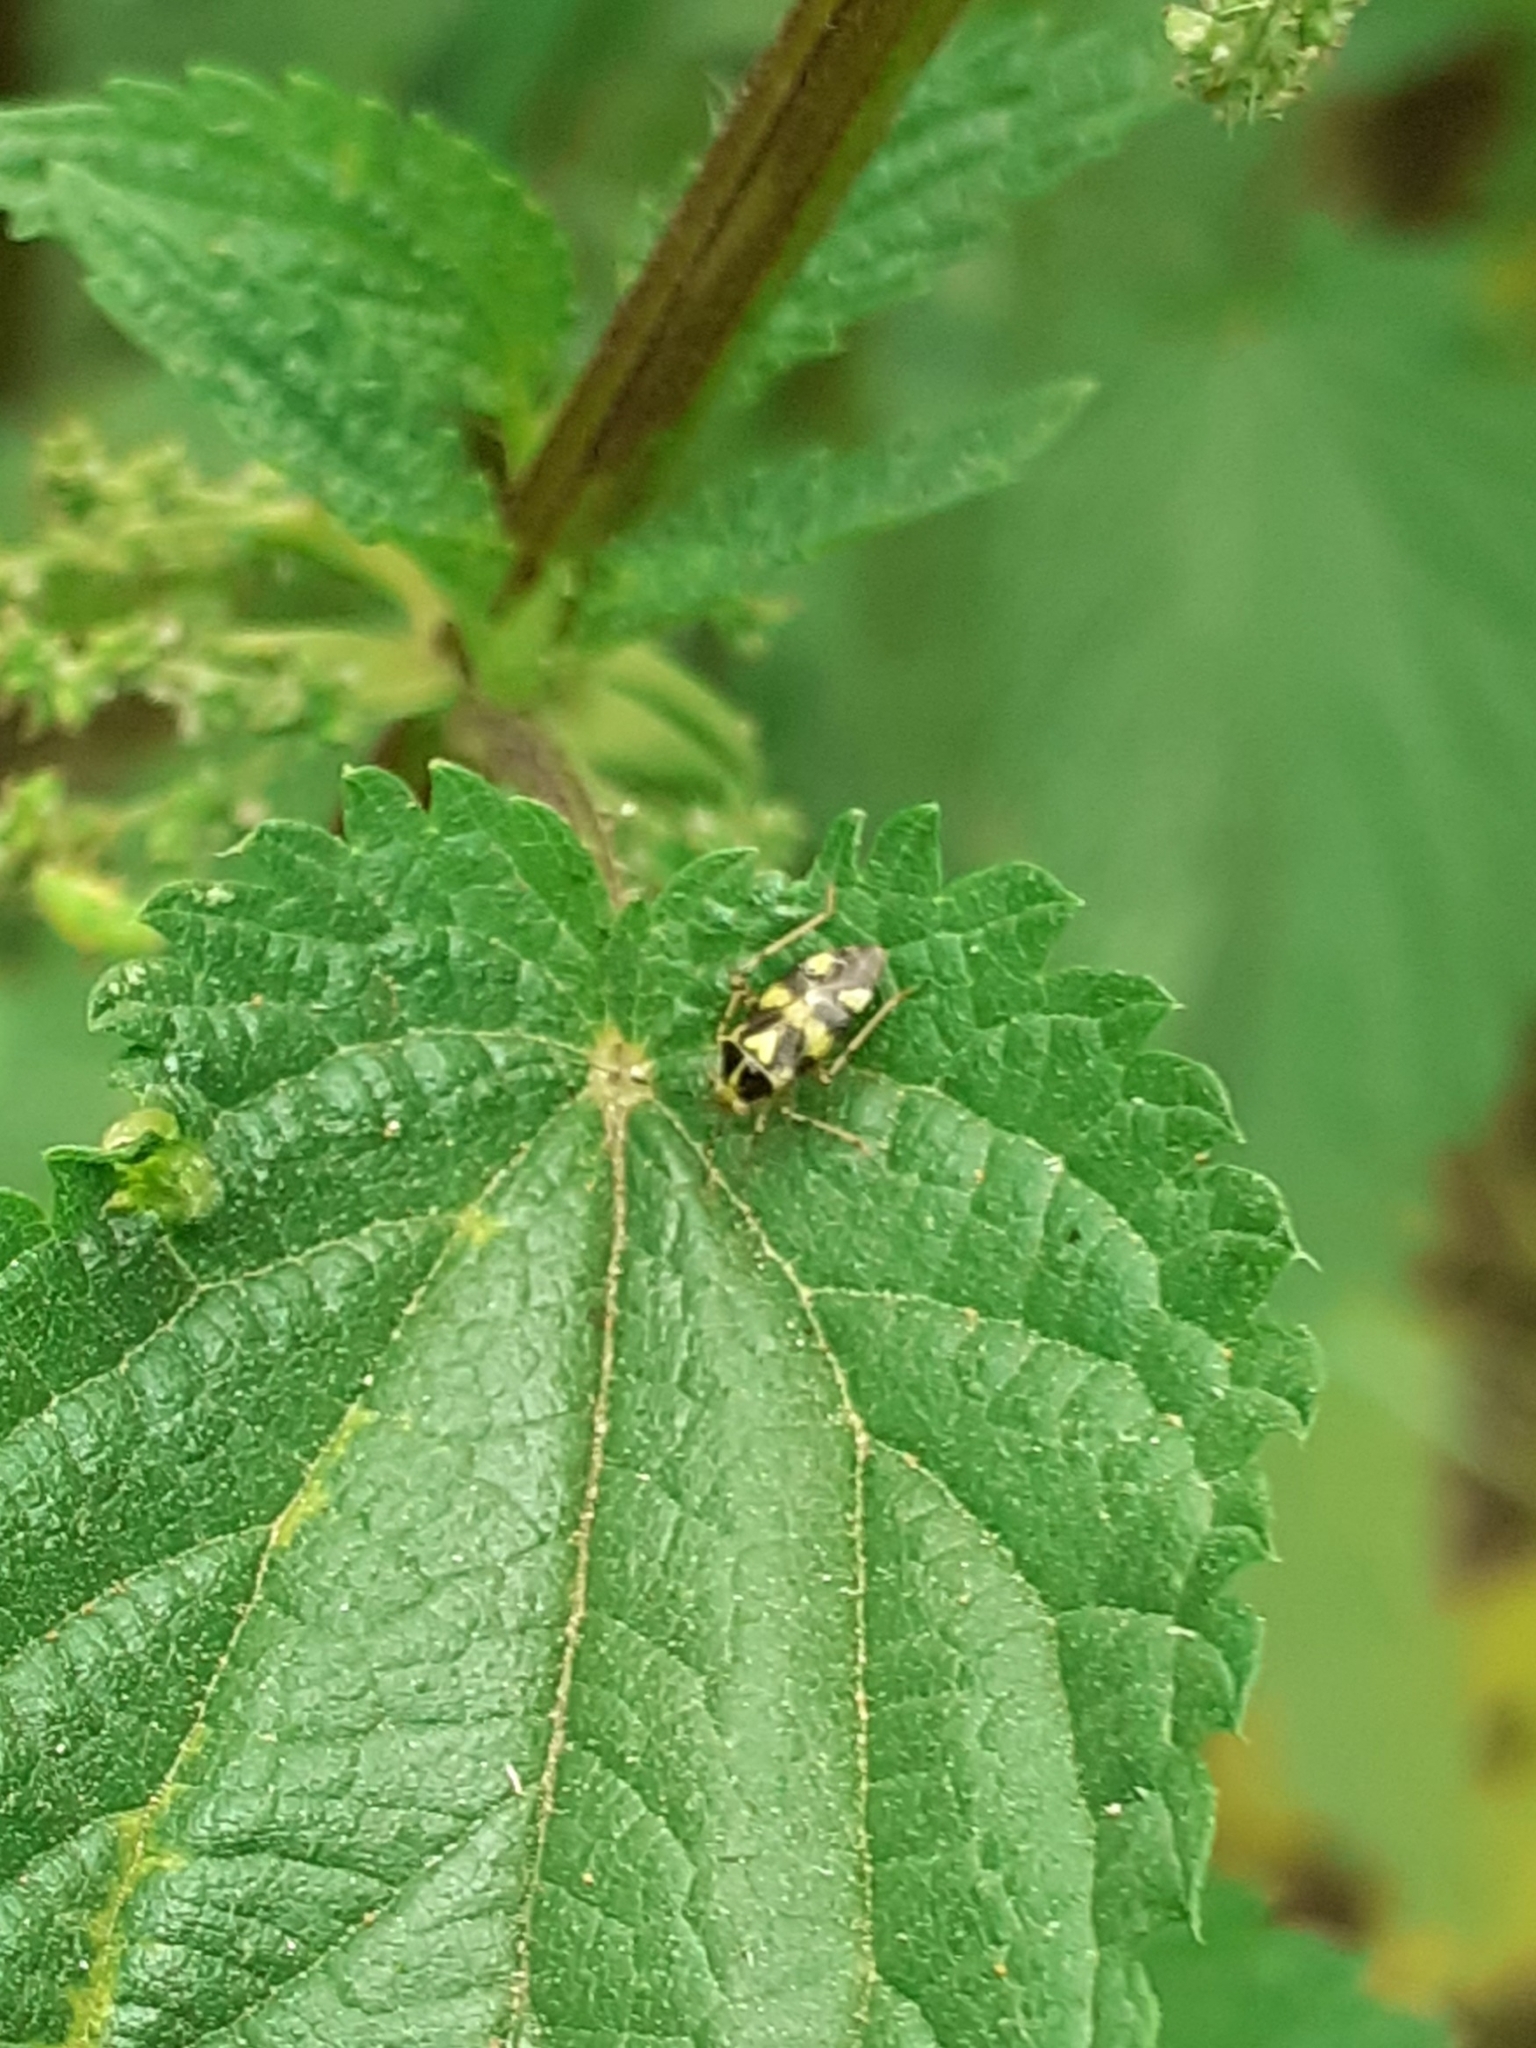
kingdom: Animalia
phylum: Arthropoda
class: Insecta
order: Hemiptera
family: Miridae
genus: Liocoris
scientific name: Liocoris tripustulatus
